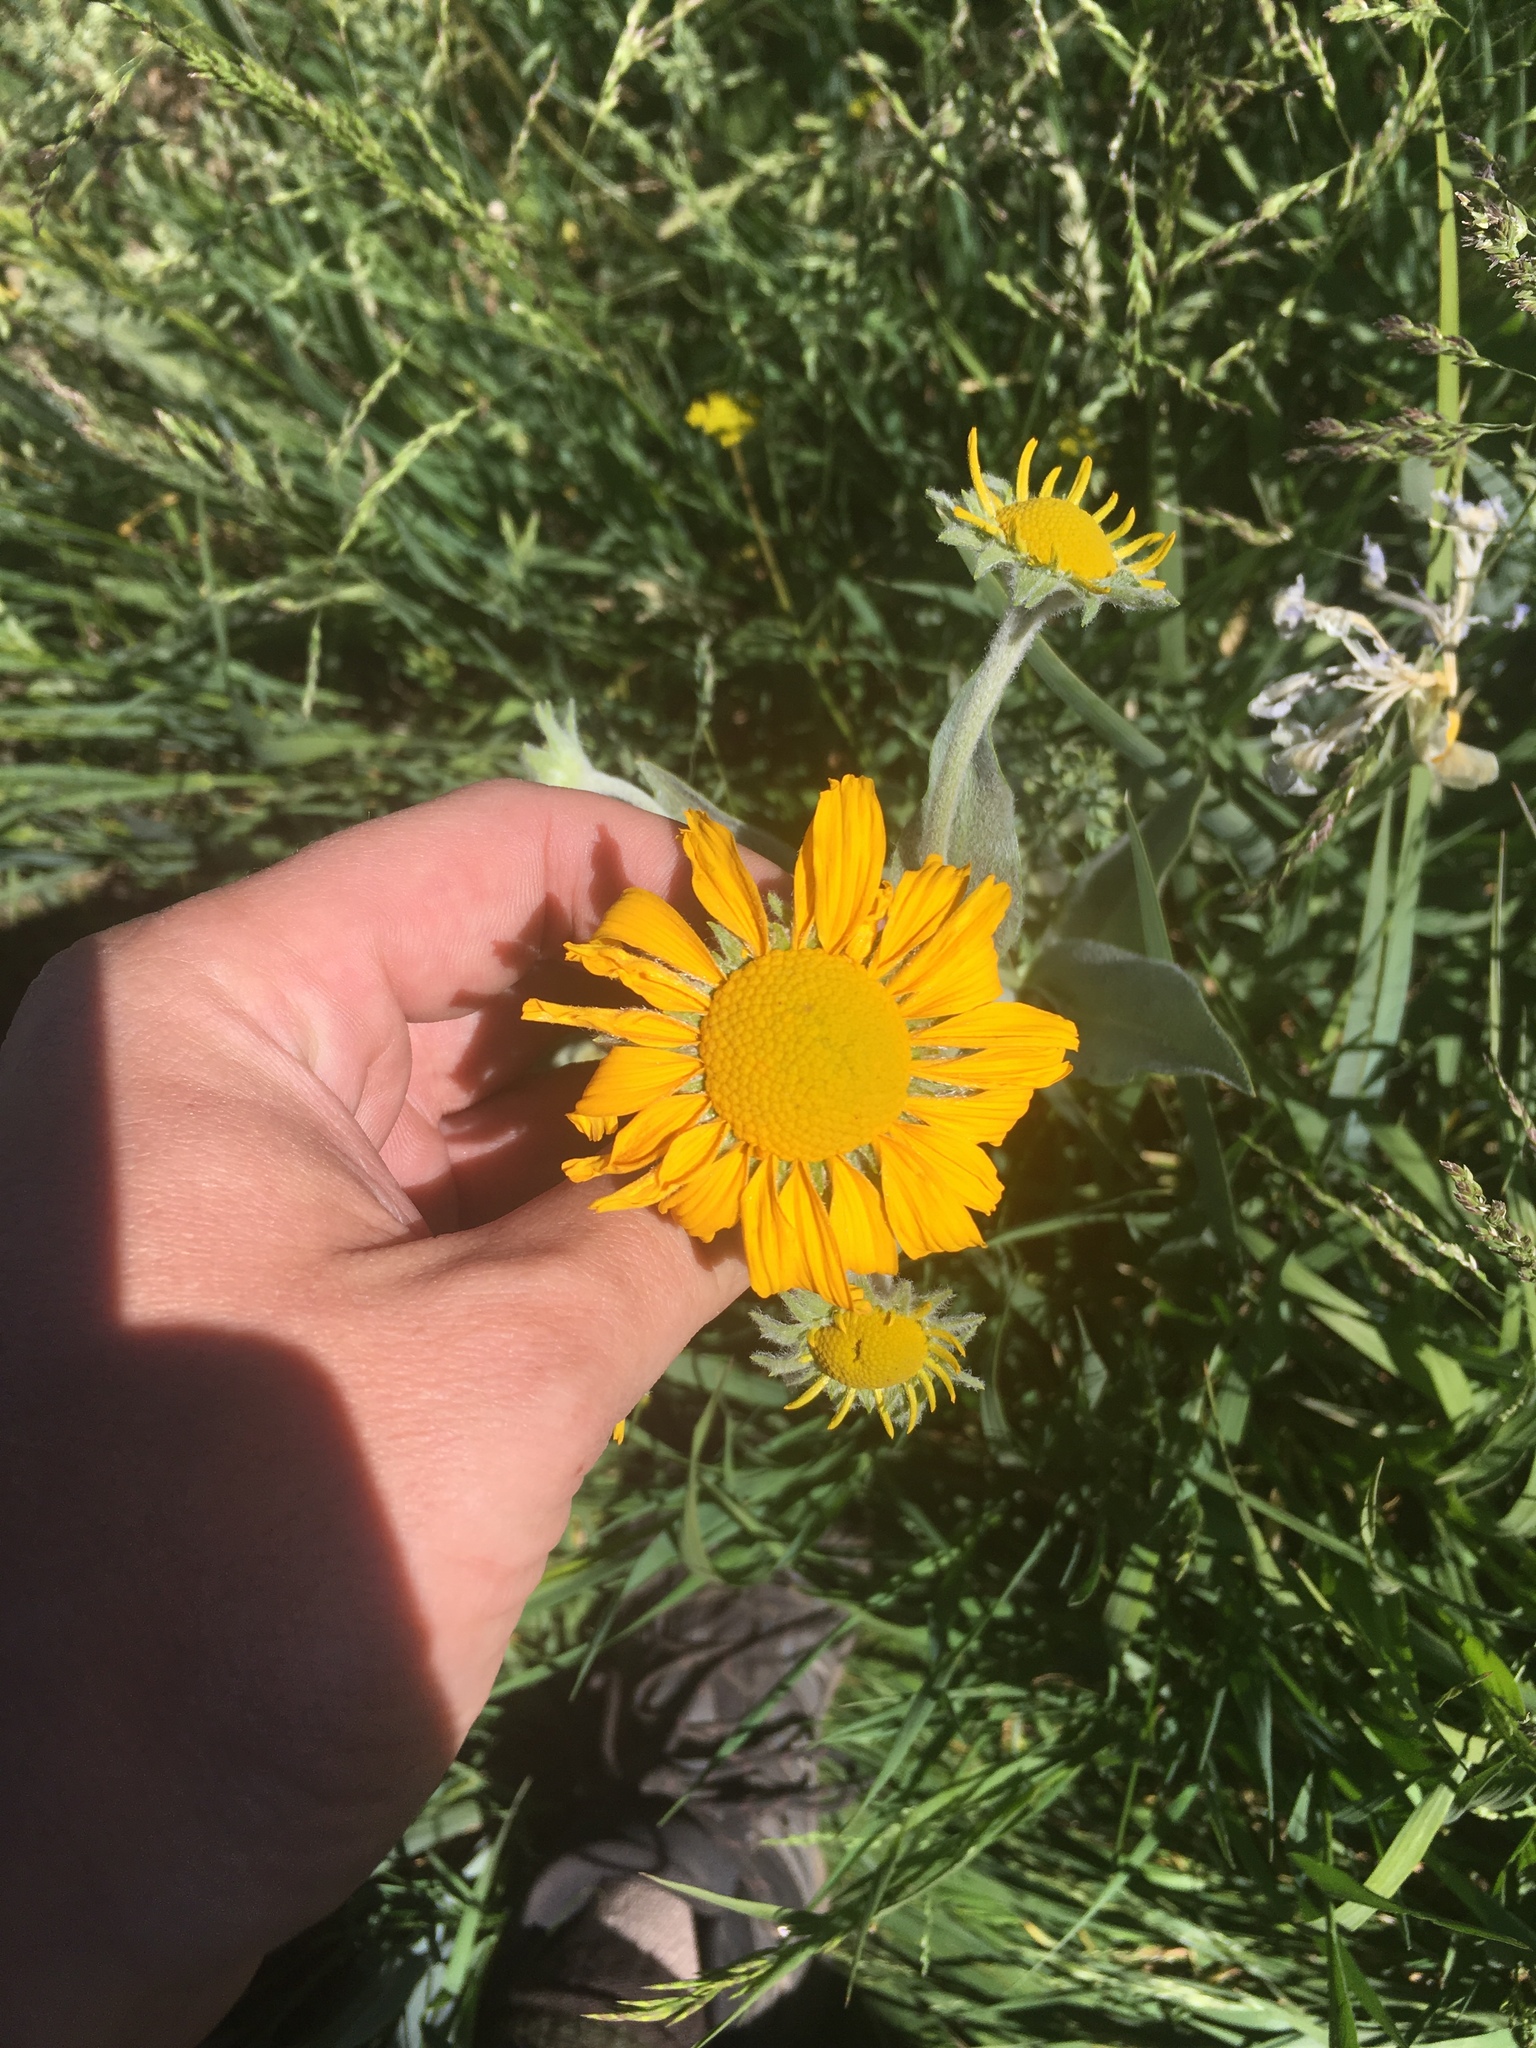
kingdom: Plantae
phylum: Tracheophyta
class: Magnoliopsida
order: Asterales
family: Asteraceae
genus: Hymenoxys
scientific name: Hymenoxys hoopesii
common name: Orange-sneezeweed
